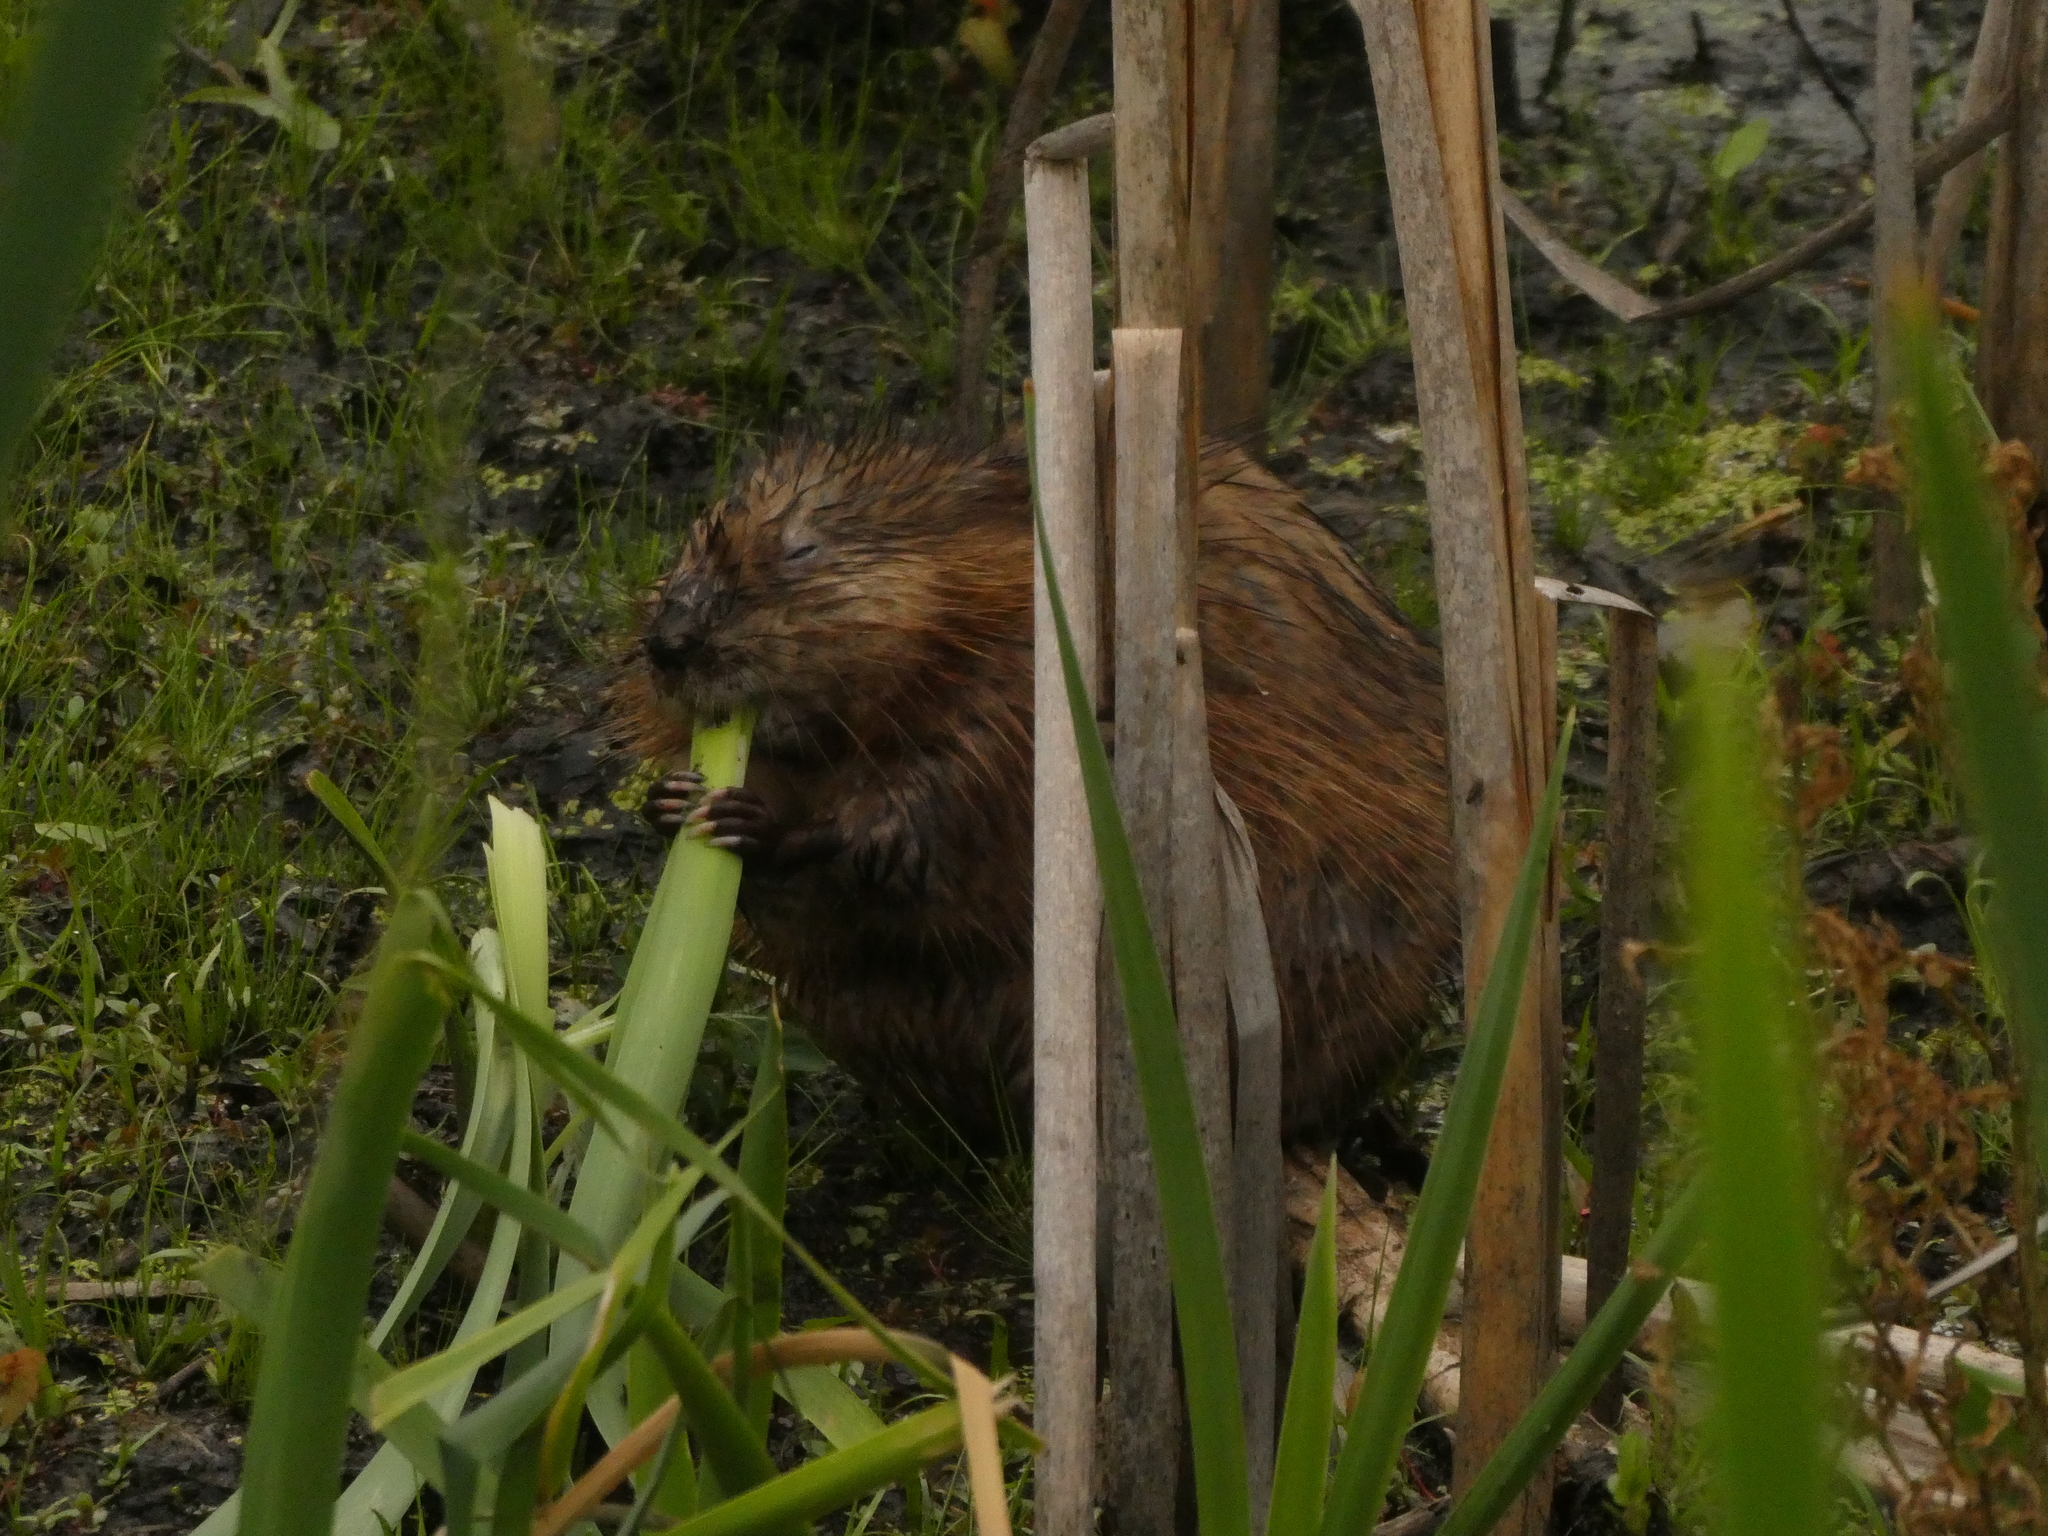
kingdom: Animalia
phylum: Chordata
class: Mammalia
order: Rodentia
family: Cricetidae
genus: Ondatra
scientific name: Ondatra zibethicus
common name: Muskrat
